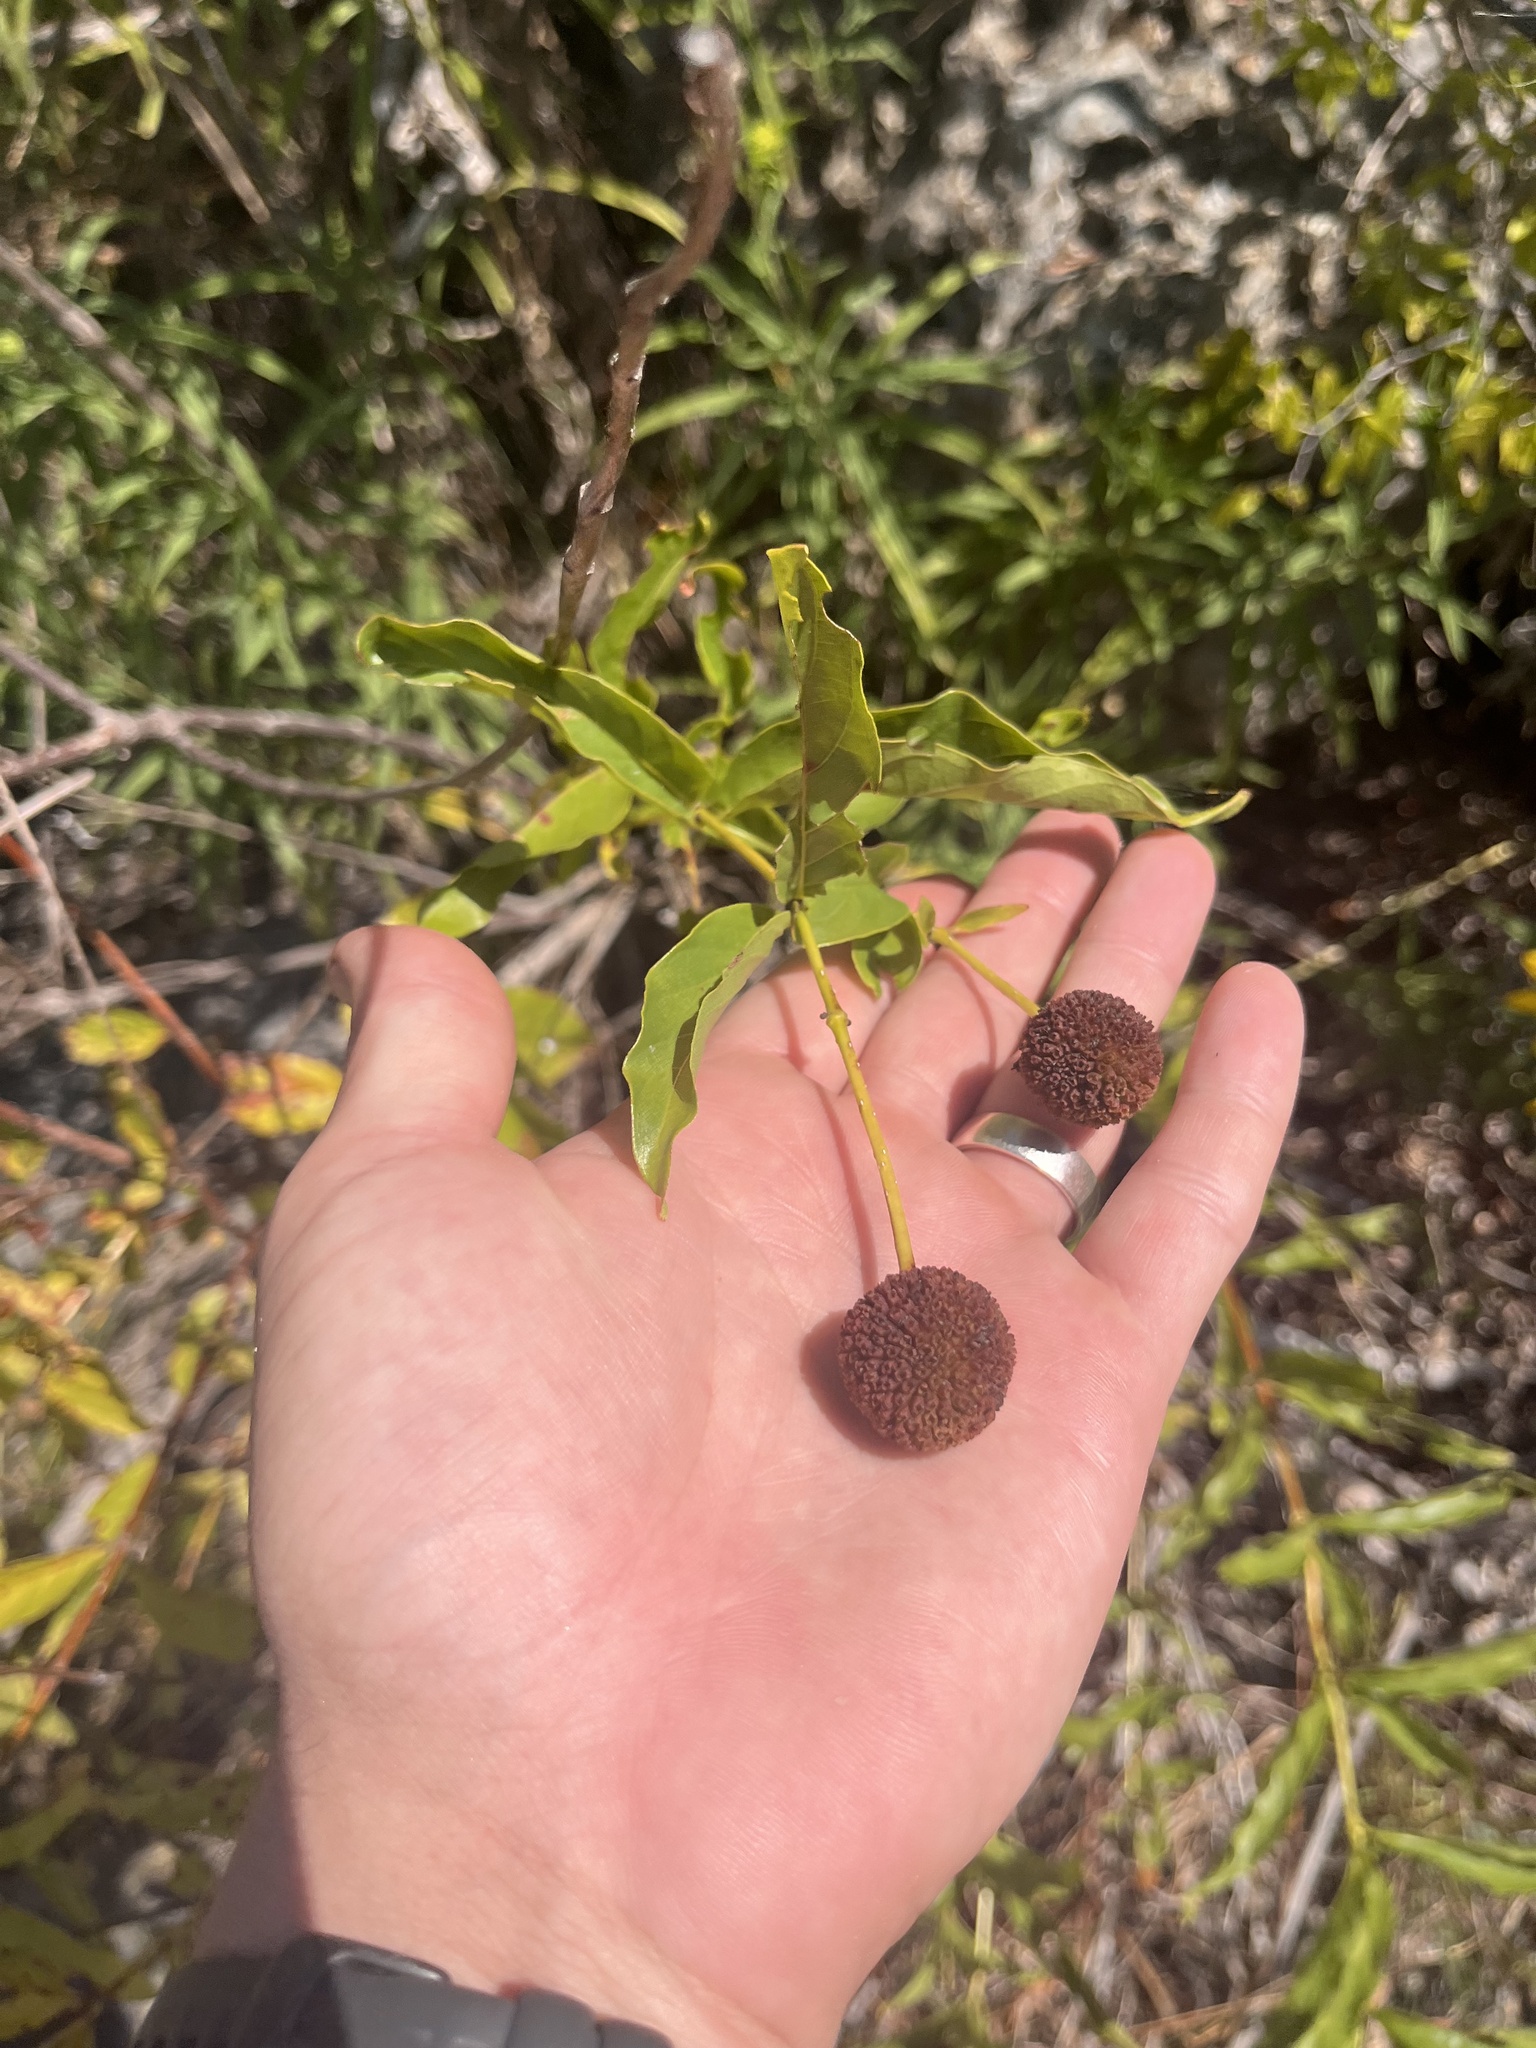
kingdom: Plantae
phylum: Tracheophyta
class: Magnoliopsida
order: Gentianales
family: Rubiaceae
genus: Cephalanthus
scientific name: Cephalanthus occidentalis
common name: Button-willow
